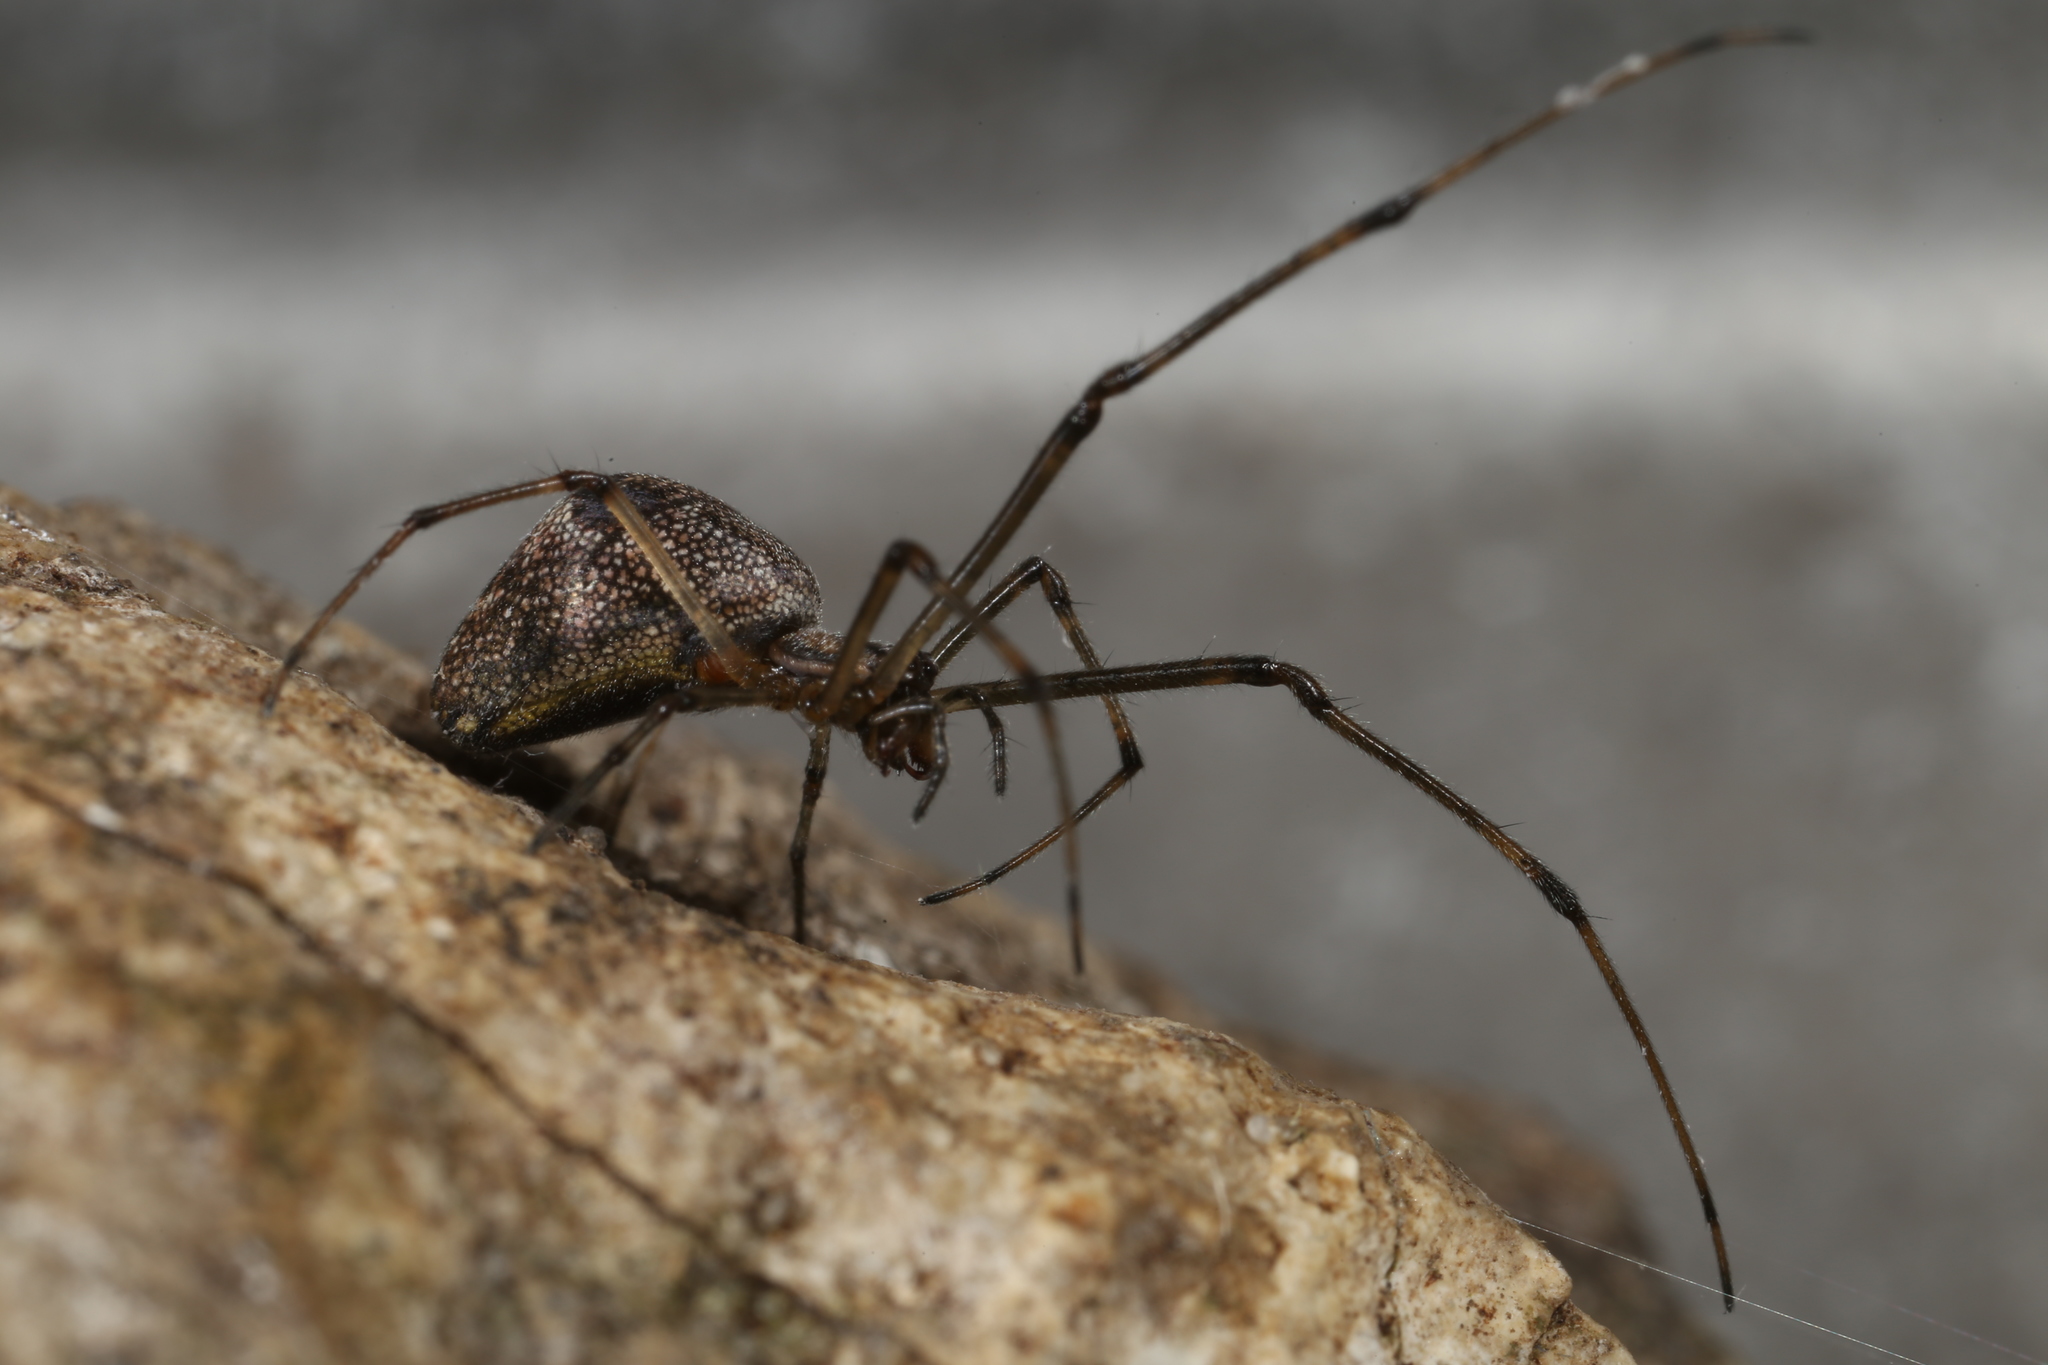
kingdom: Animalia
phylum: Arthropoda
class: Arachnida
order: Araneae
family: Tetragnathidae
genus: Tetragnatha
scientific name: Tetragnatha obtusa
